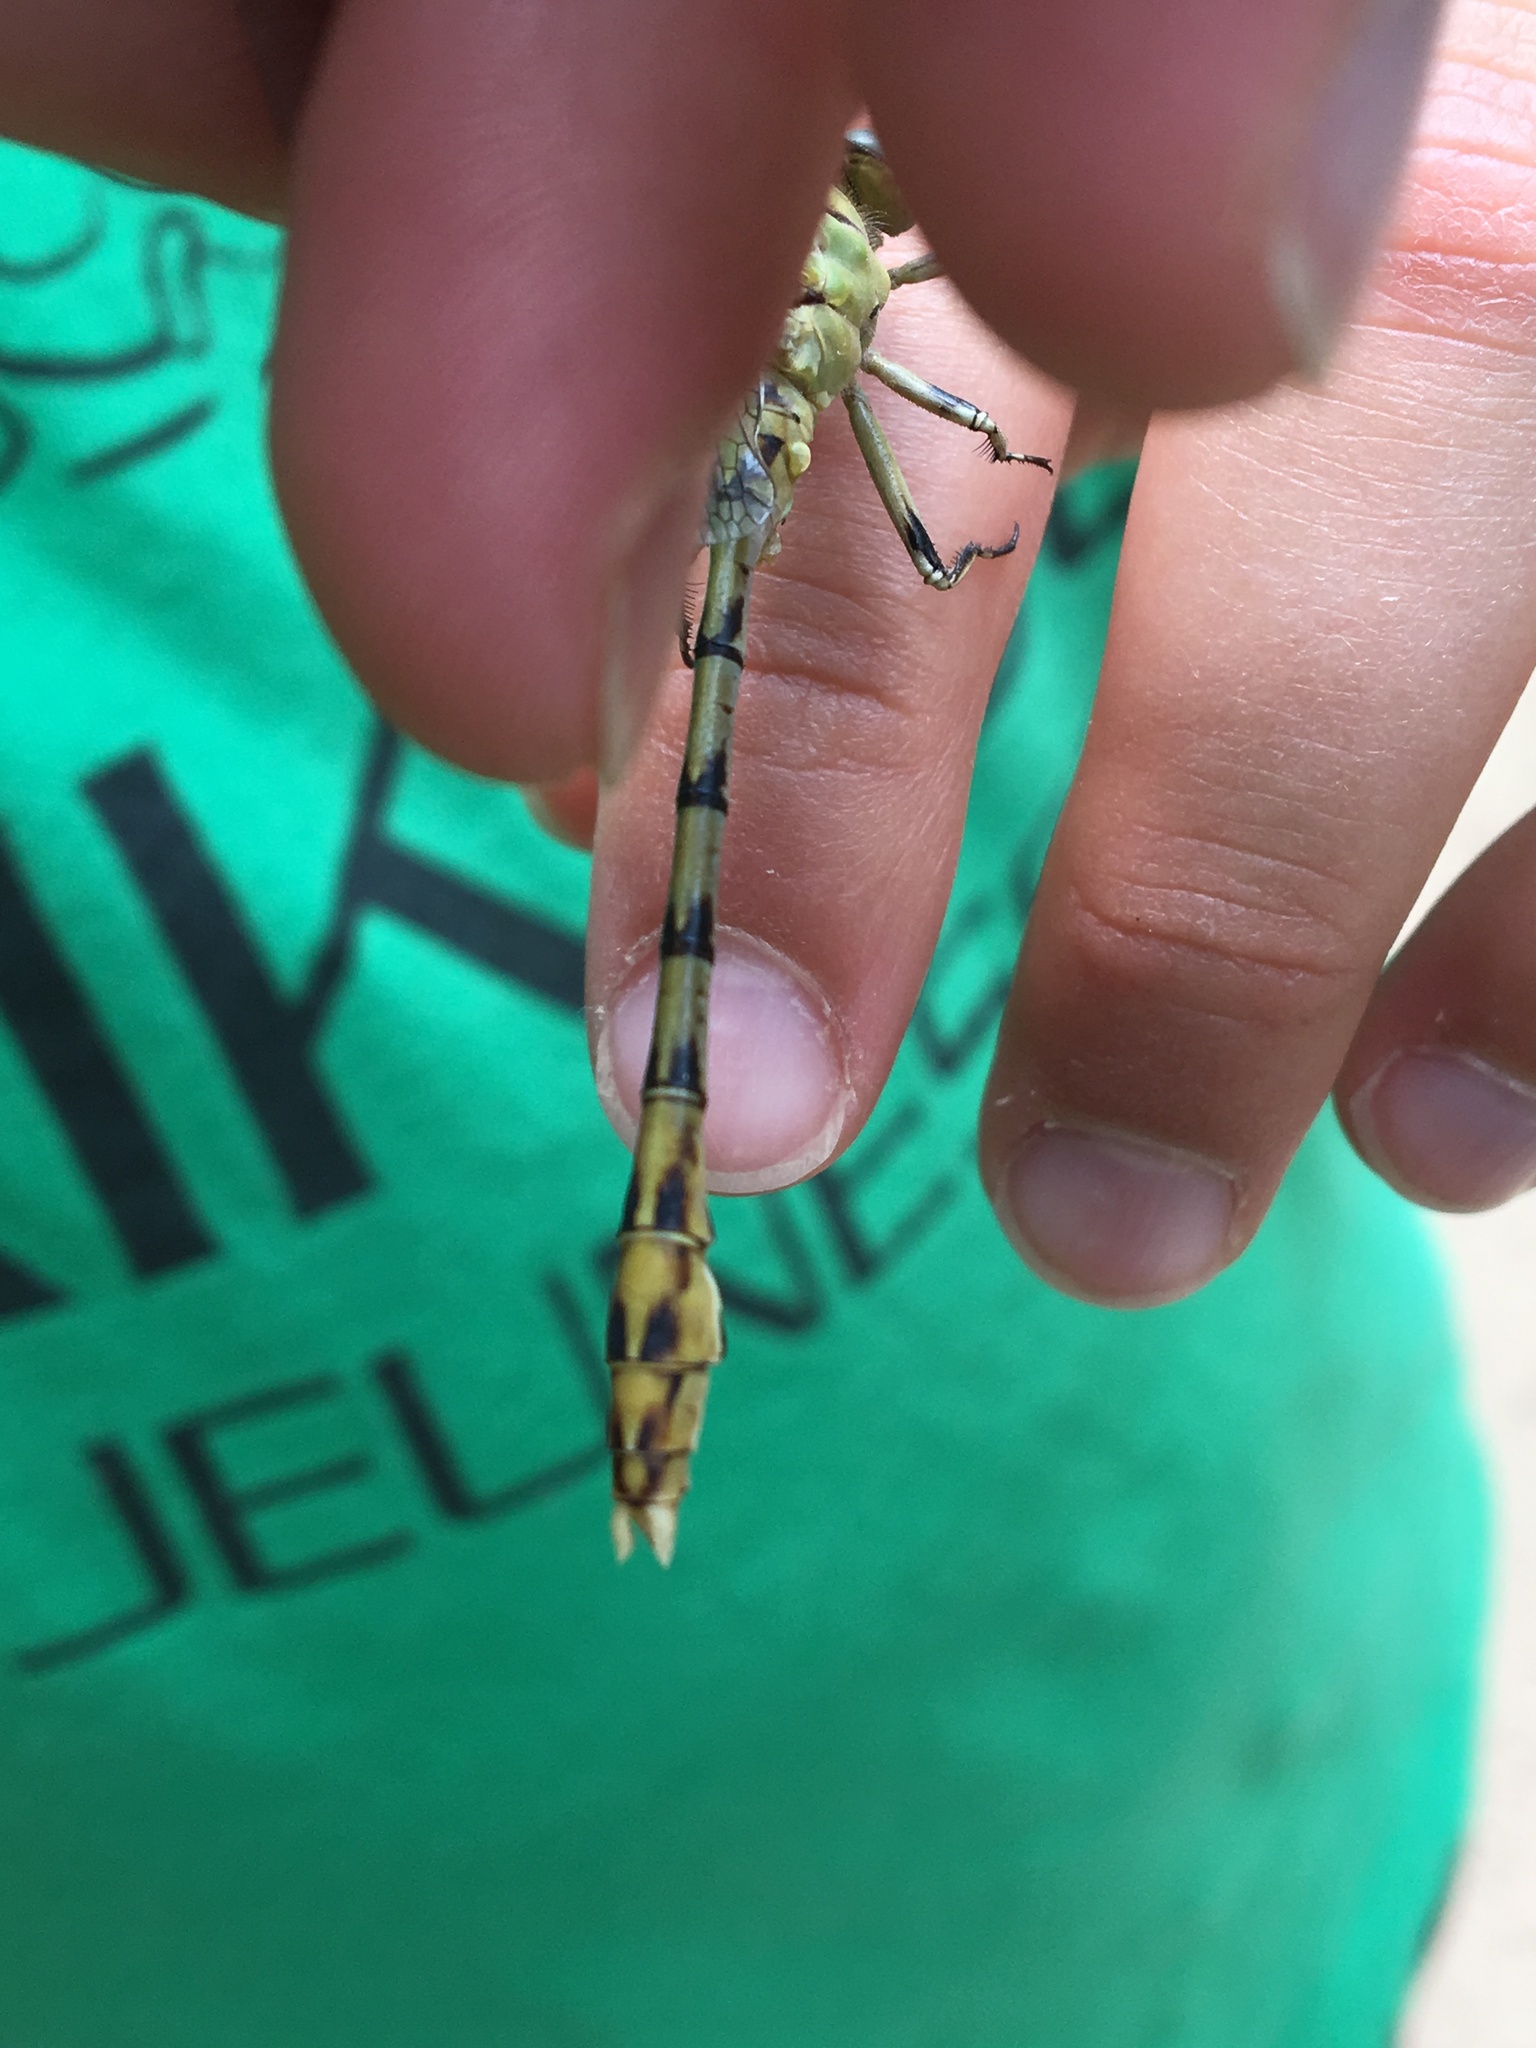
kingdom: Animalia
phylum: Arthropoda
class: Insecta
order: Odonata
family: Gomphidae
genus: Ophiogomphus
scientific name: Ophiogomphus severus
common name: Pale snaketail
